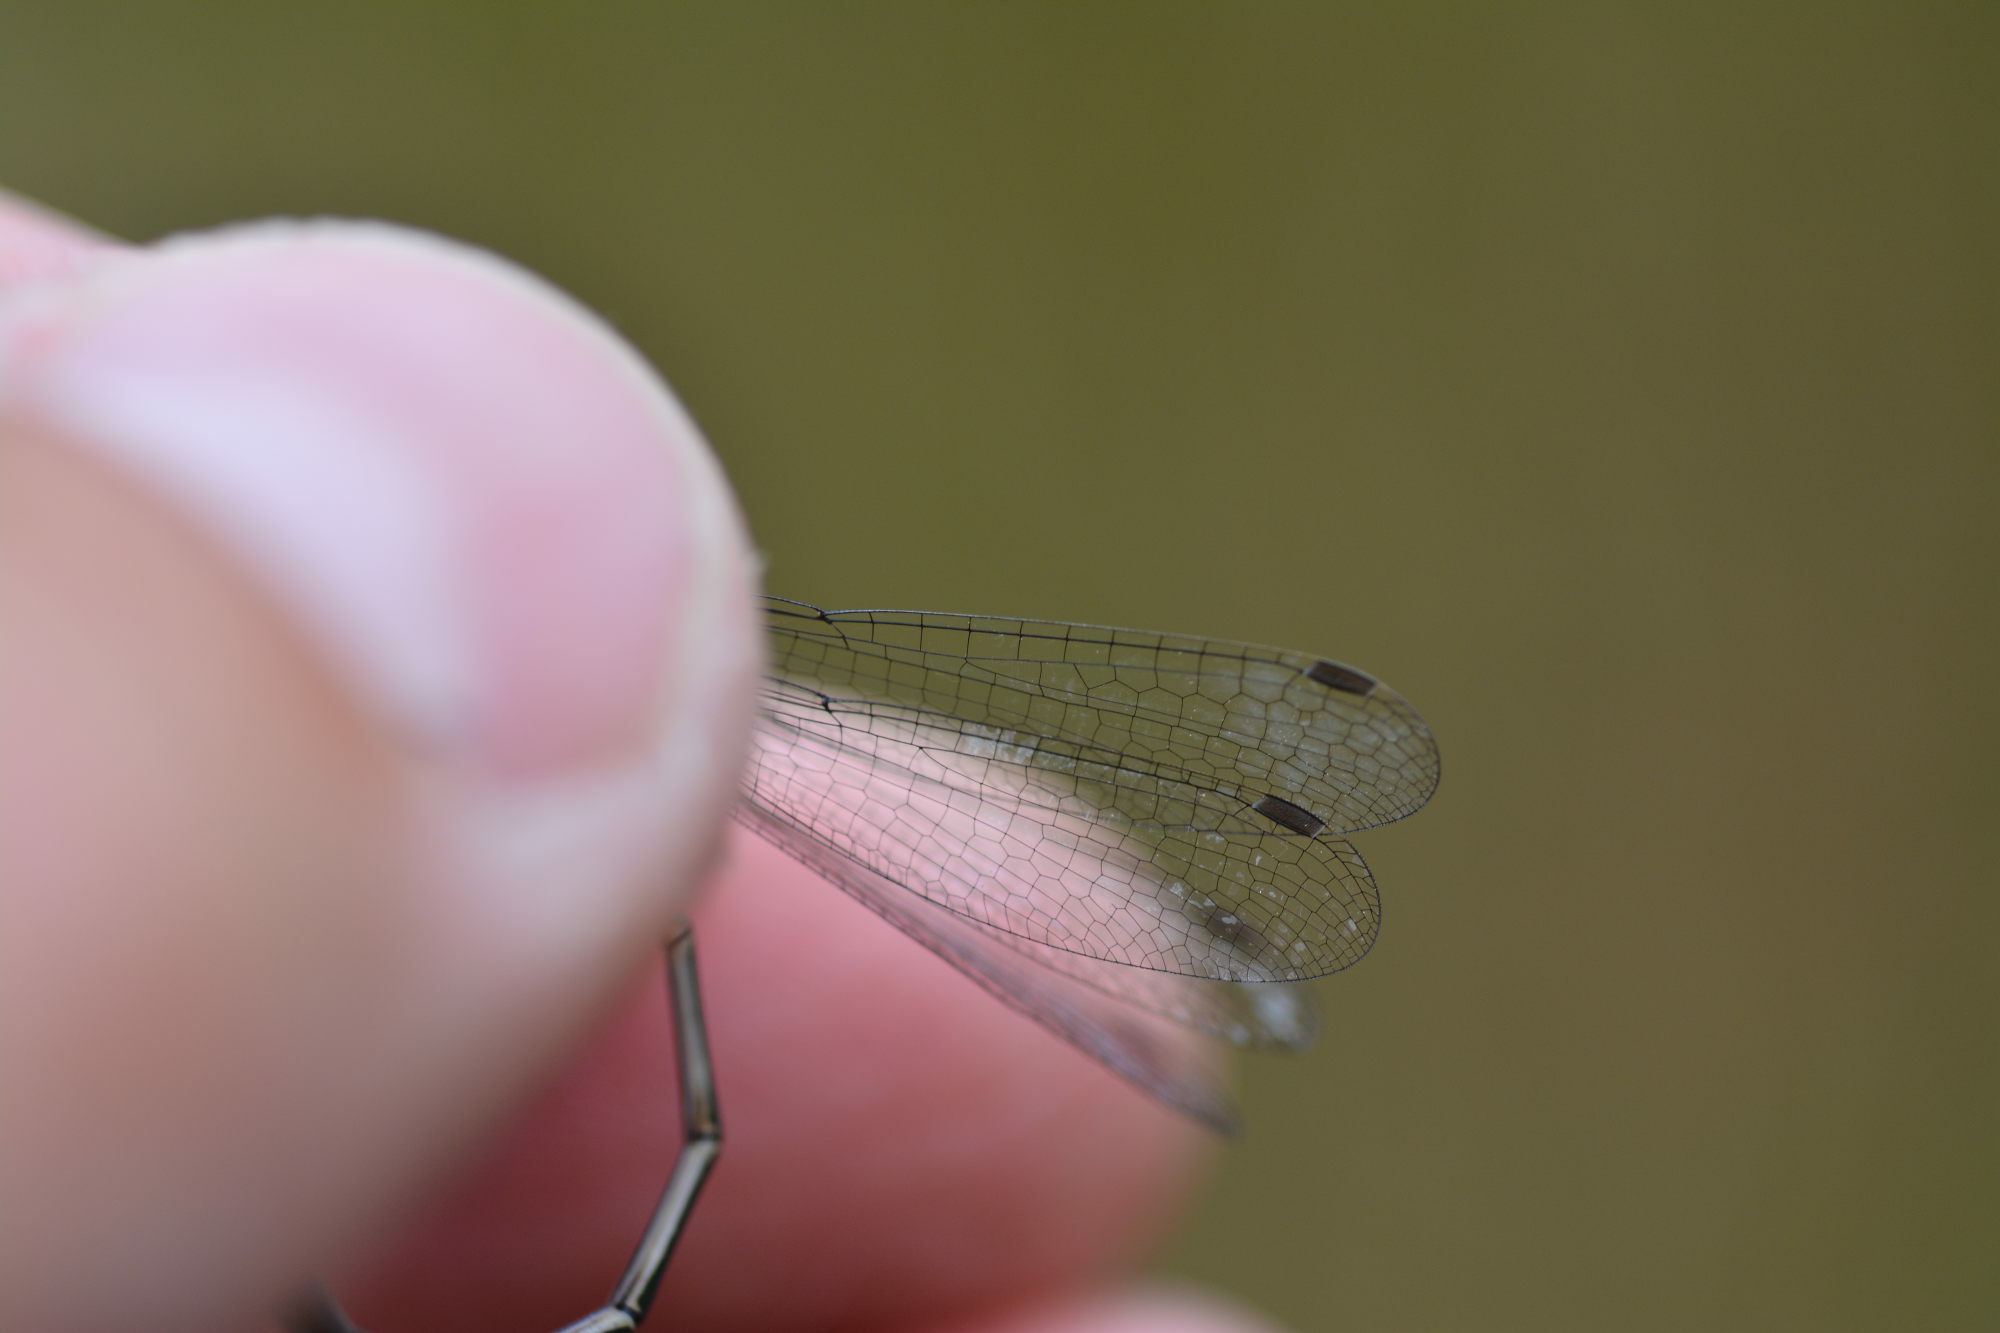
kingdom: Animalia
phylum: Arthropoda
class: Insecta
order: Odonata
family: Lestidae
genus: Lestes
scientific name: Lestes sponsa
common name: Common spreadwing
